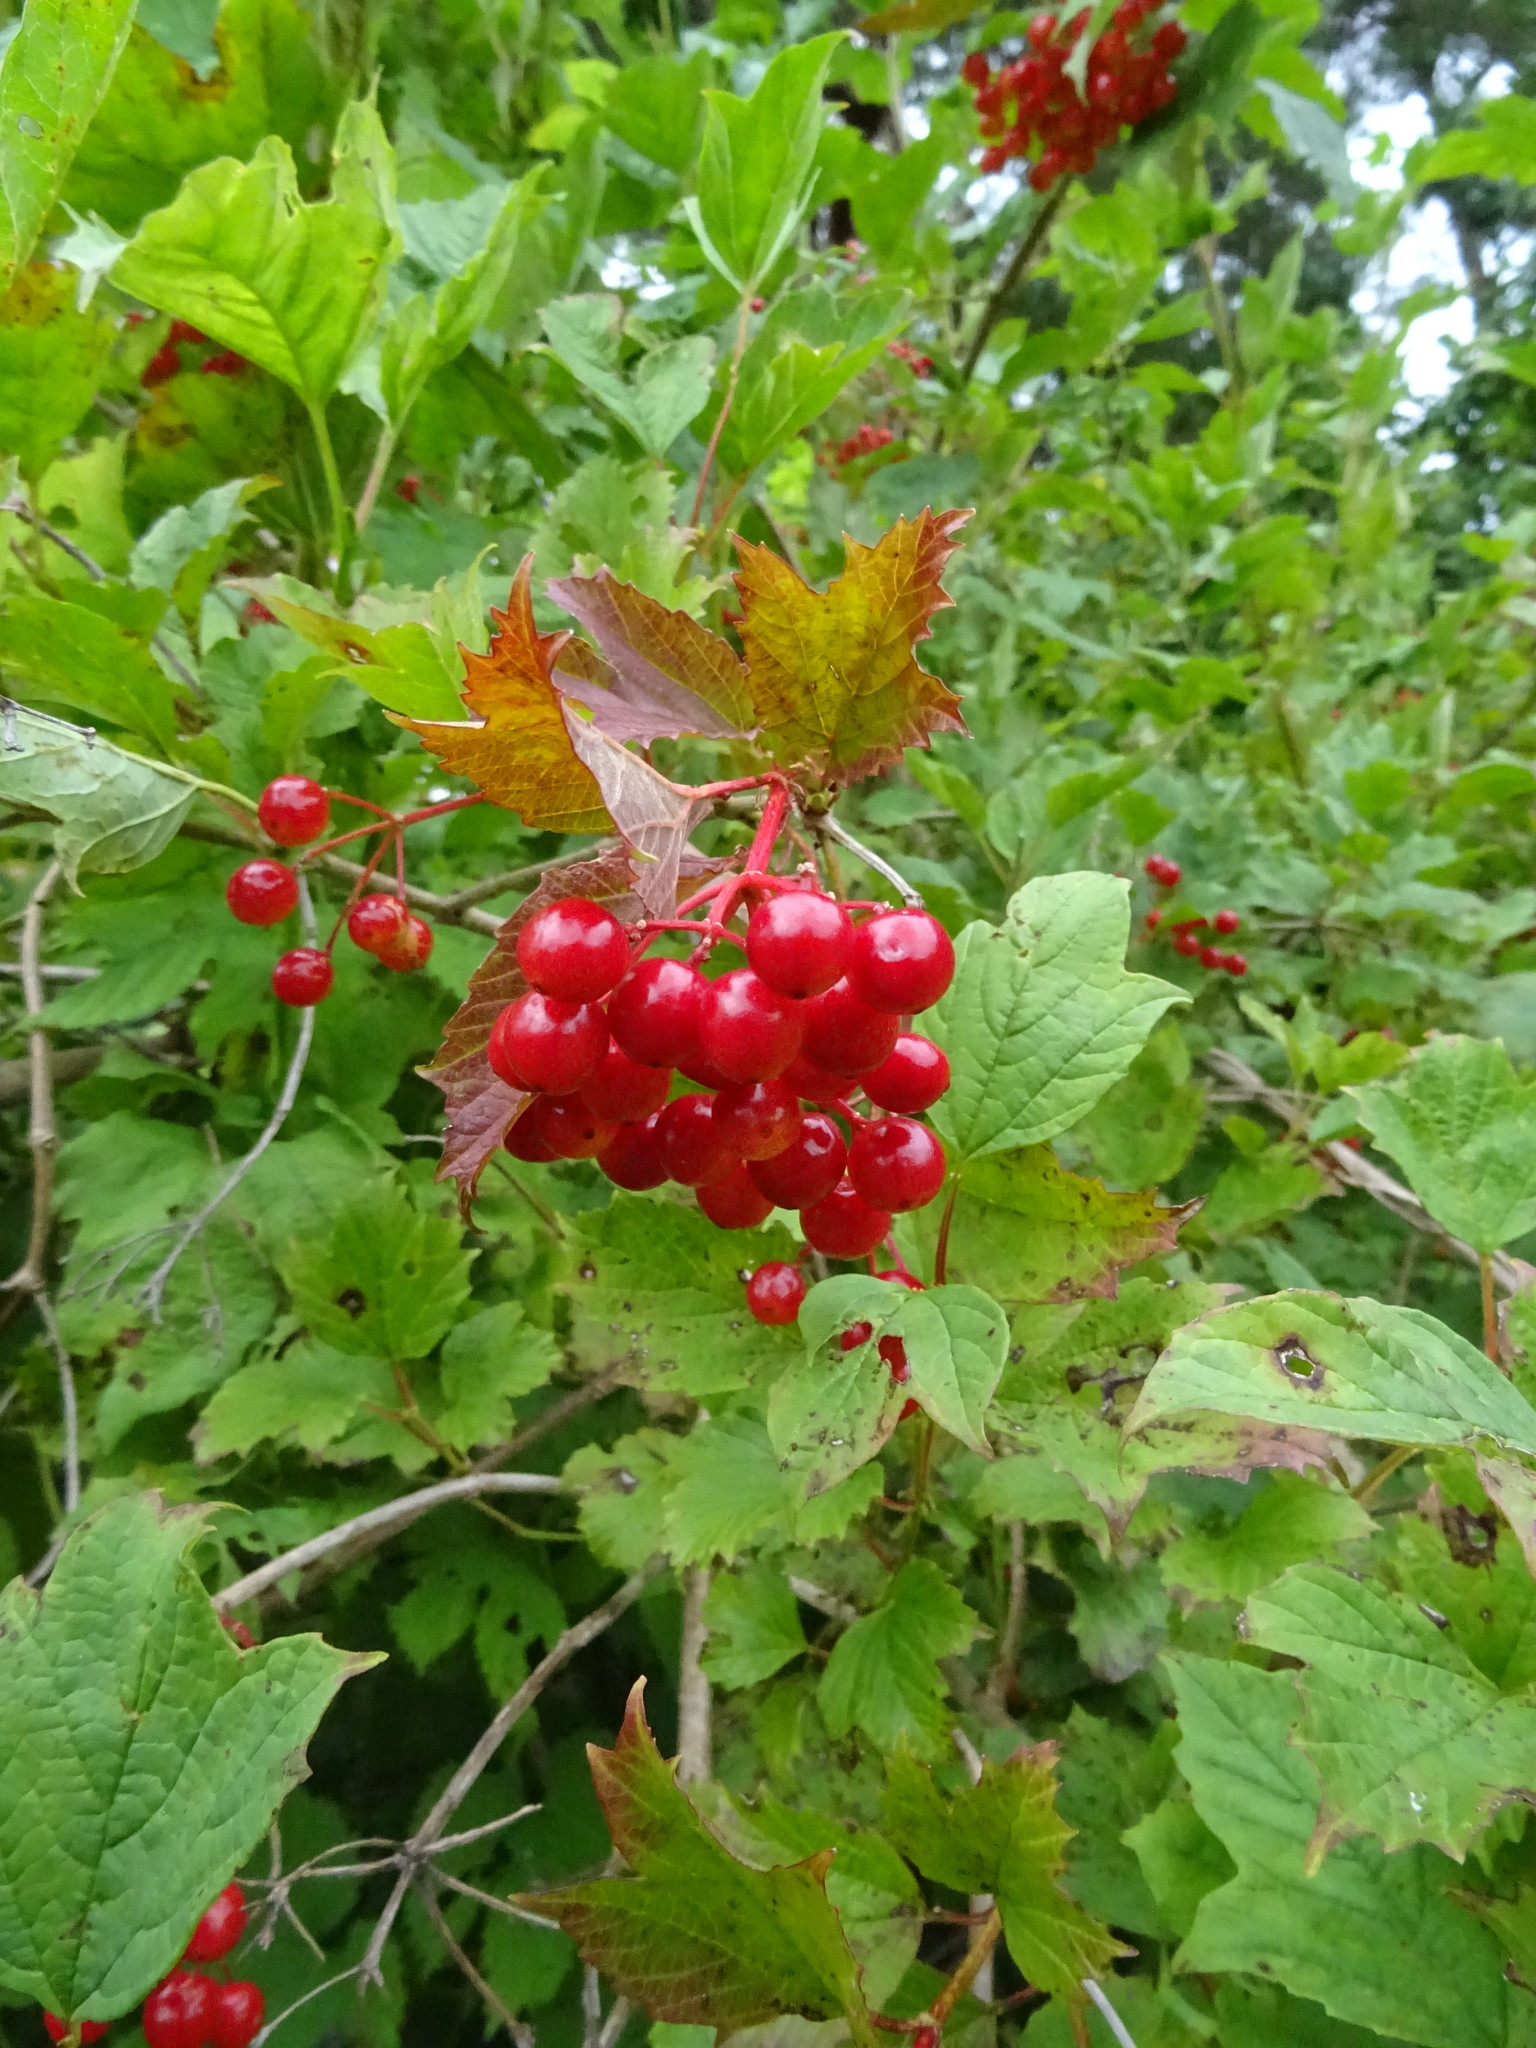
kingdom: Plantae
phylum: Tracheophyta
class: Magnoliopsida
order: Dipsacales
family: Viburnaceae
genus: Viburnum
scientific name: Viburnum opulus
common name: Guelder-rose
